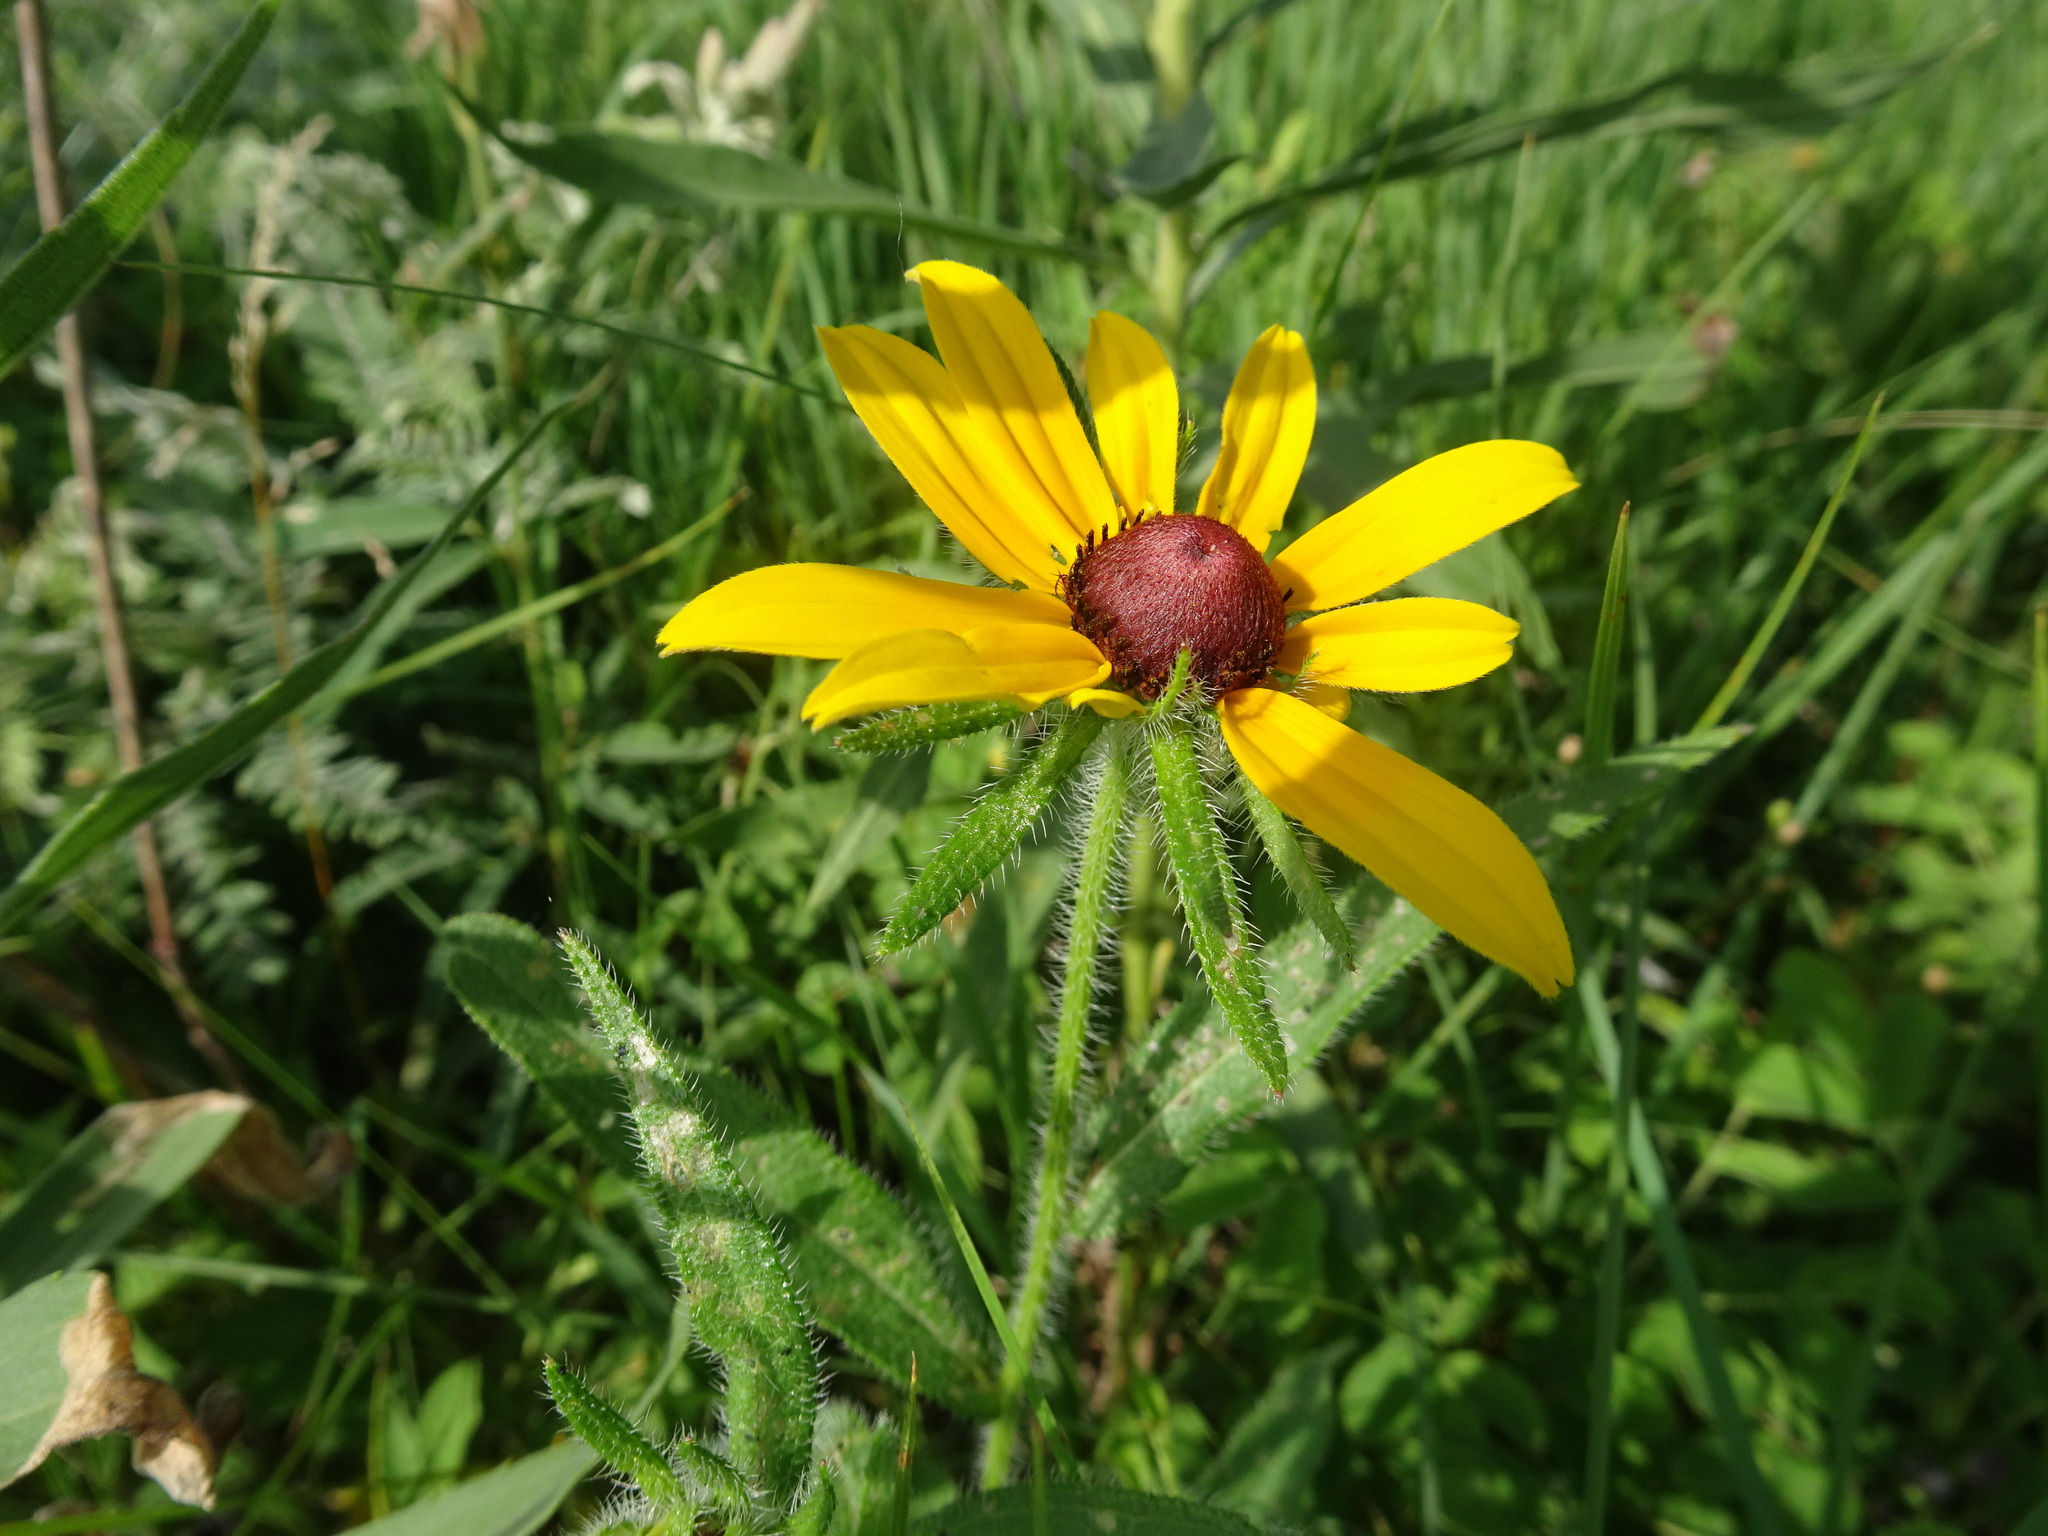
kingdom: Plantae
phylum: Tracheophyta
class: Magnoliopsida
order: Asterales
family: Asteraceae
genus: Rudbeckia
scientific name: Rudbeckia hirta
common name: Black-eyed-susan
